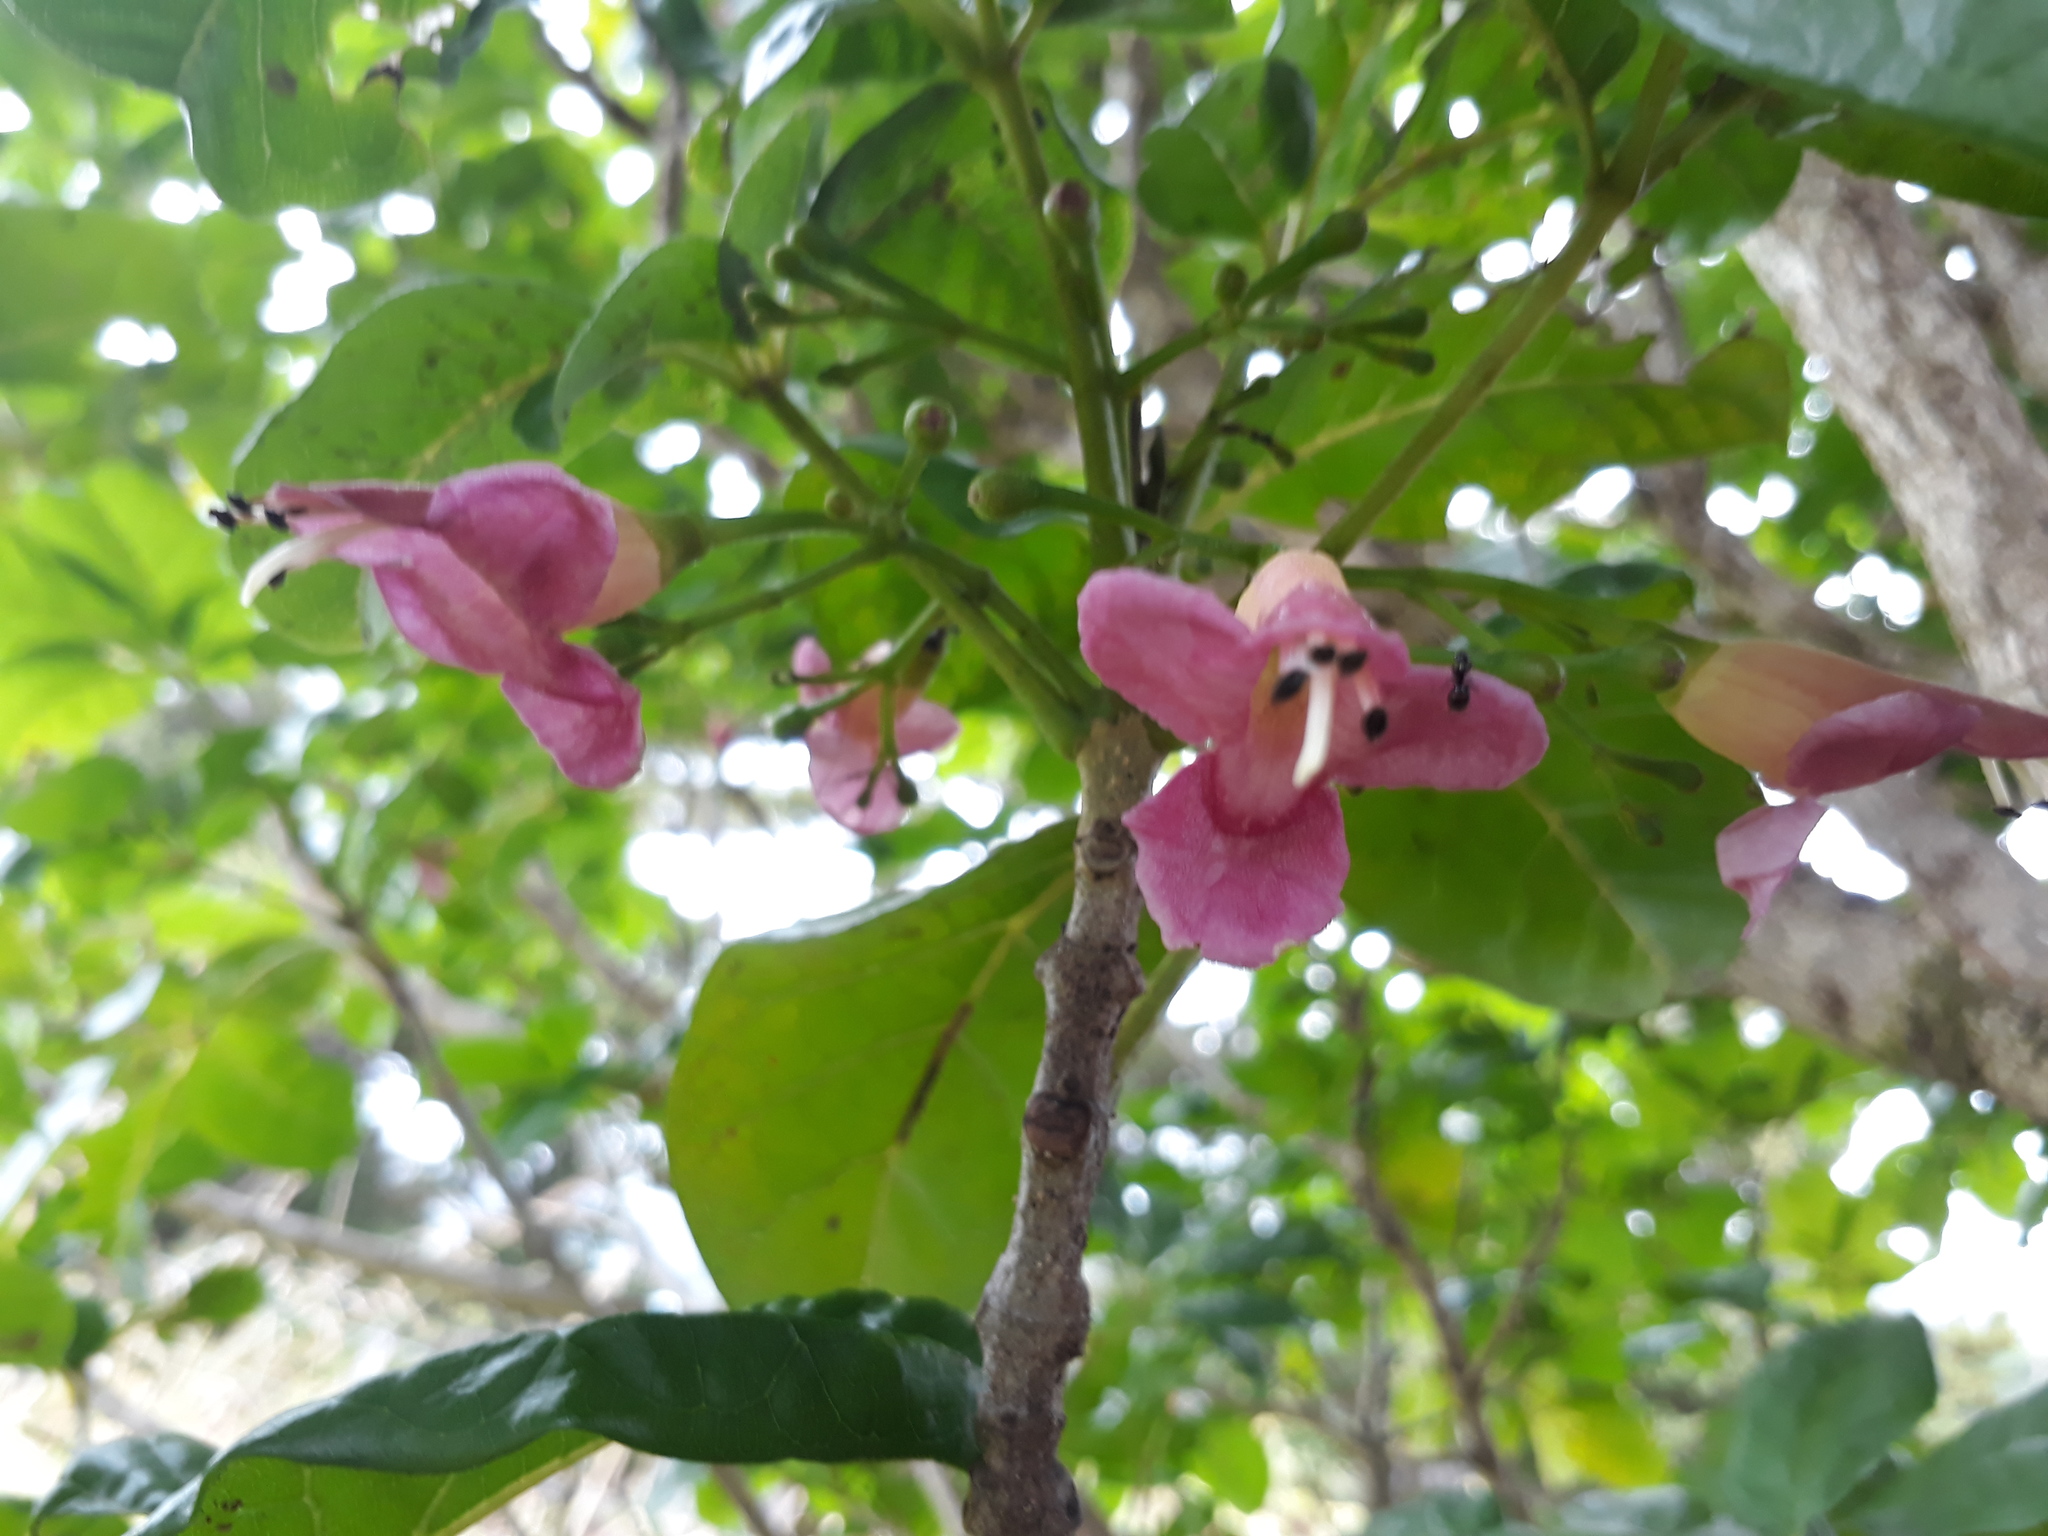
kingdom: Plantae
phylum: Tracheophyta
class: Magnoliopsida
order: Lamiales
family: Lamiaceae
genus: Vitex
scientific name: Vitex lucens
